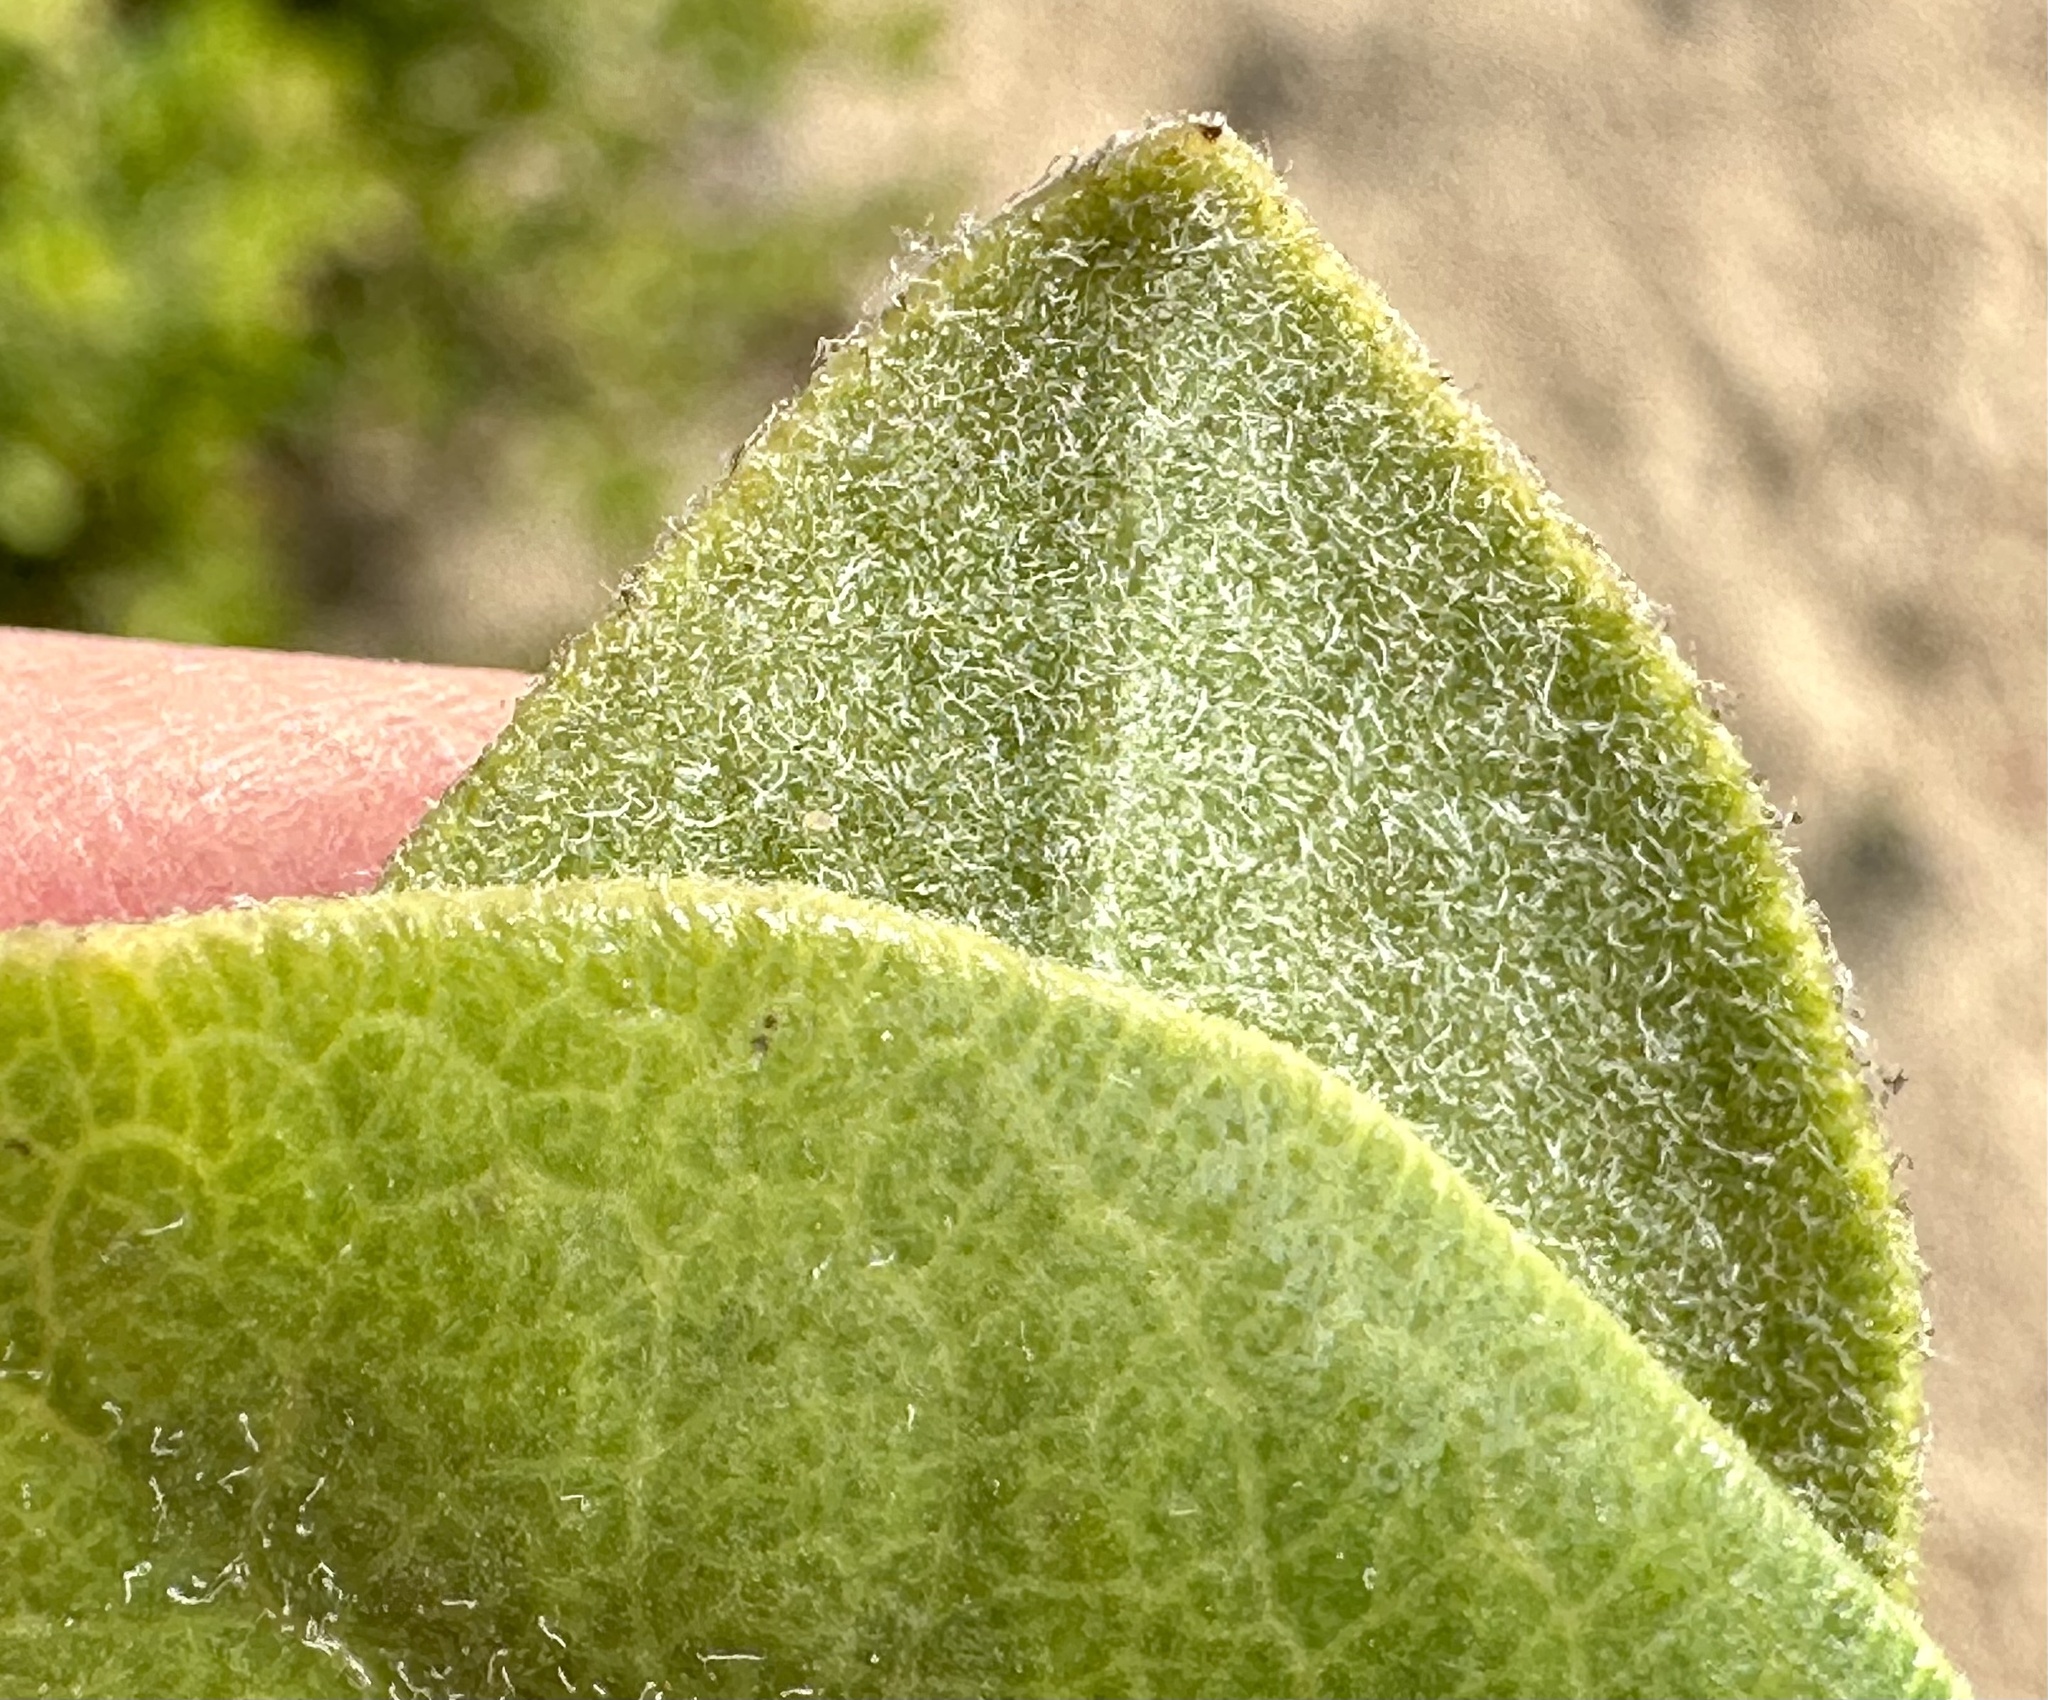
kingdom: Plantae
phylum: Tracheophyta
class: Magnoliopsida
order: Ericales
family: Ericaceae
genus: Arctostaphylos
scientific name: Arctostaphylos tomentosa
